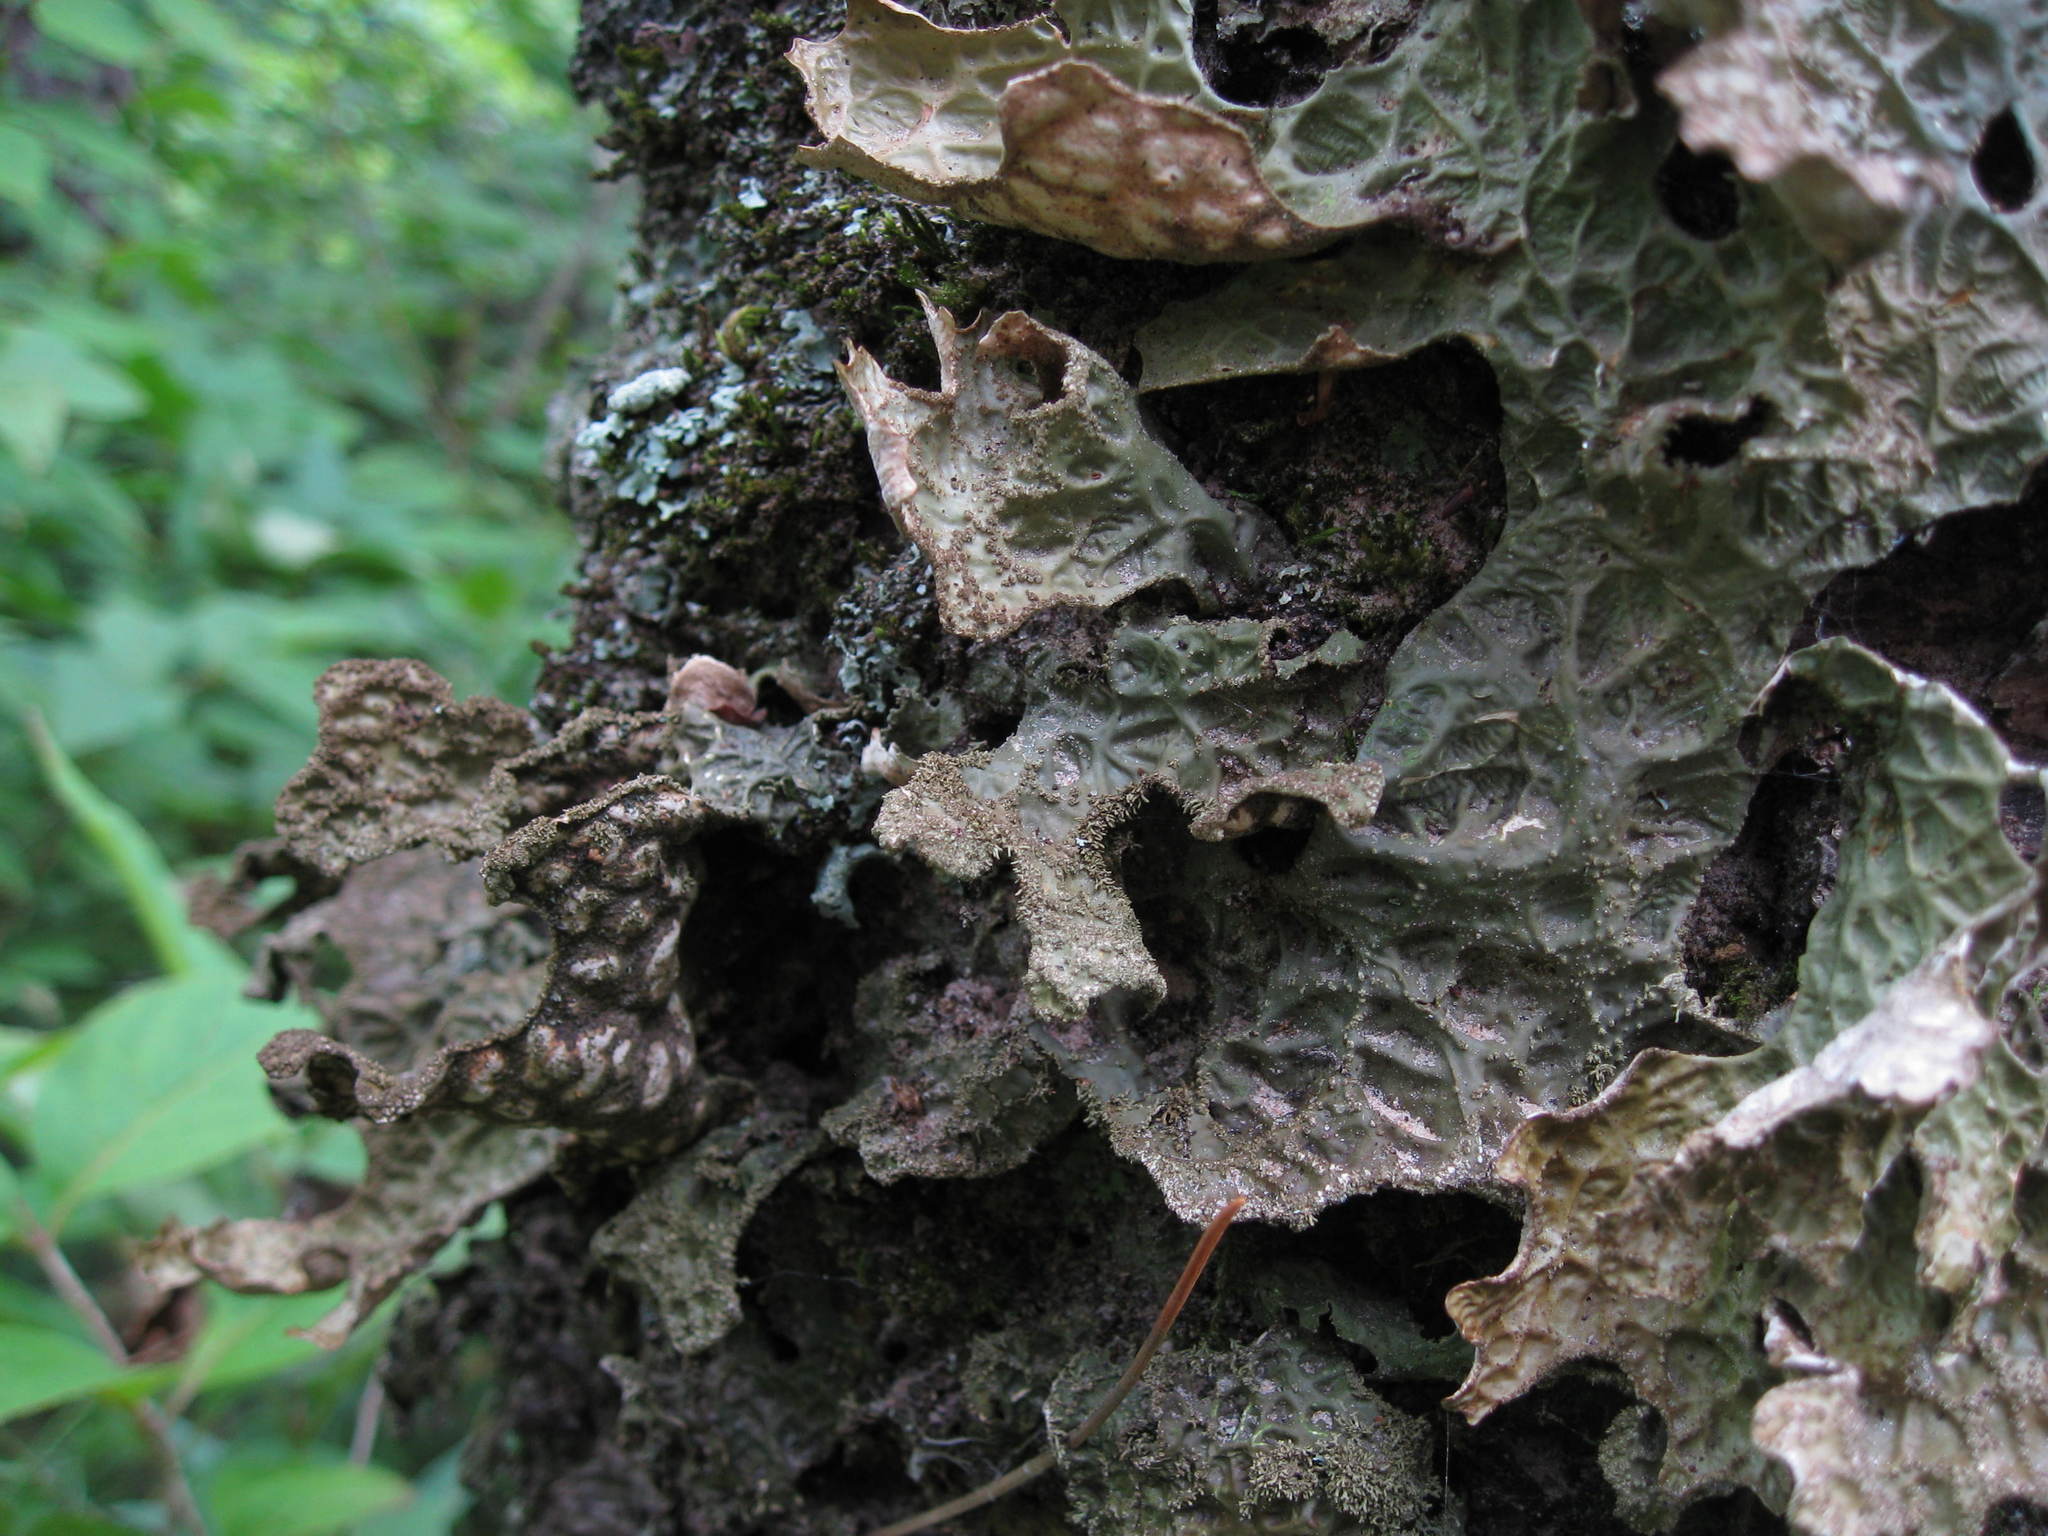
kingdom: Fungi
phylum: Ascomycota
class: Lecanoromycetes
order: Peltigerales
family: Lobariaceae
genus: Lobaria
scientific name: Lobaria pulmonaria
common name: Lungwort
